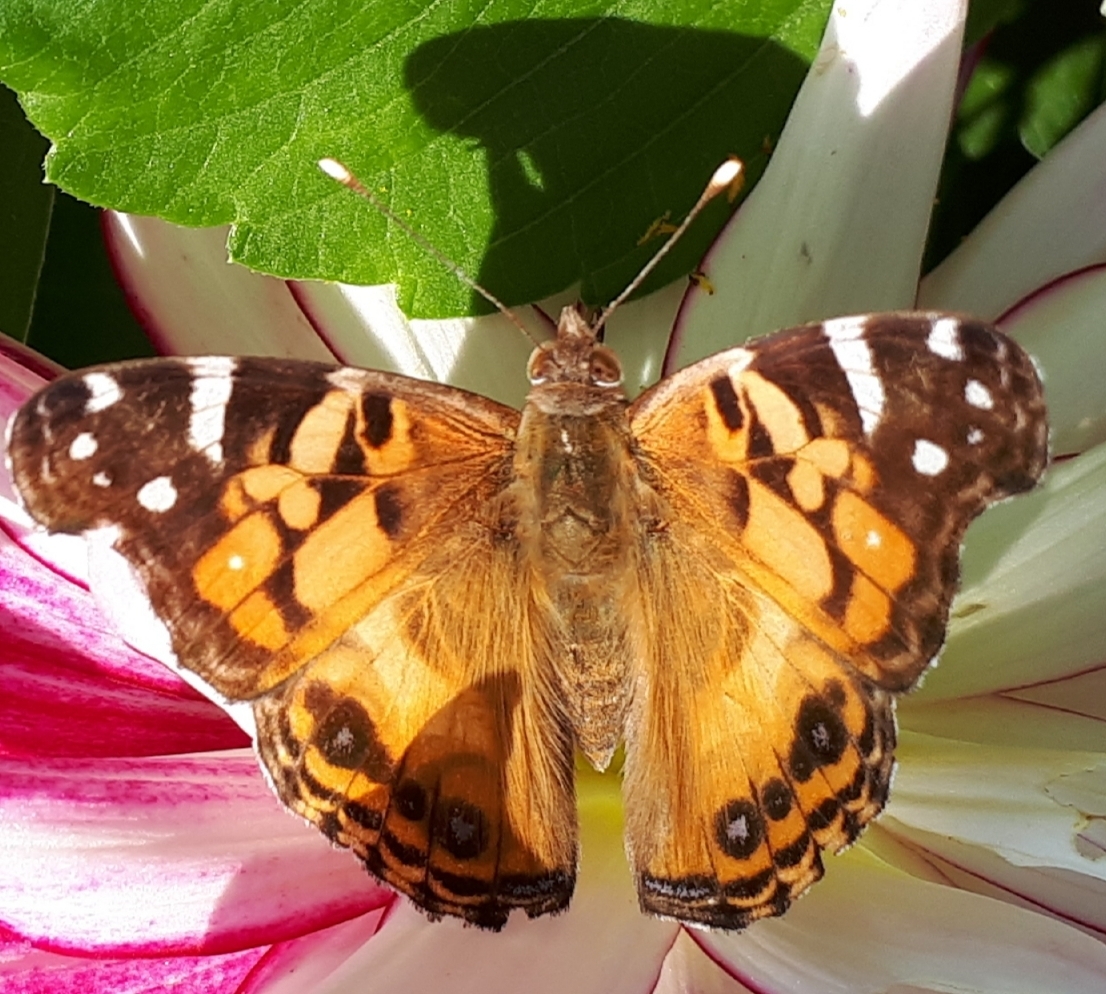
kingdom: Animalia
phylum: Arthropoda
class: Insecta
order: Lepidoptera
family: Nymphalidae
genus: Vanessa
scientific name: Vanessa virginiensis
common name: American lady
